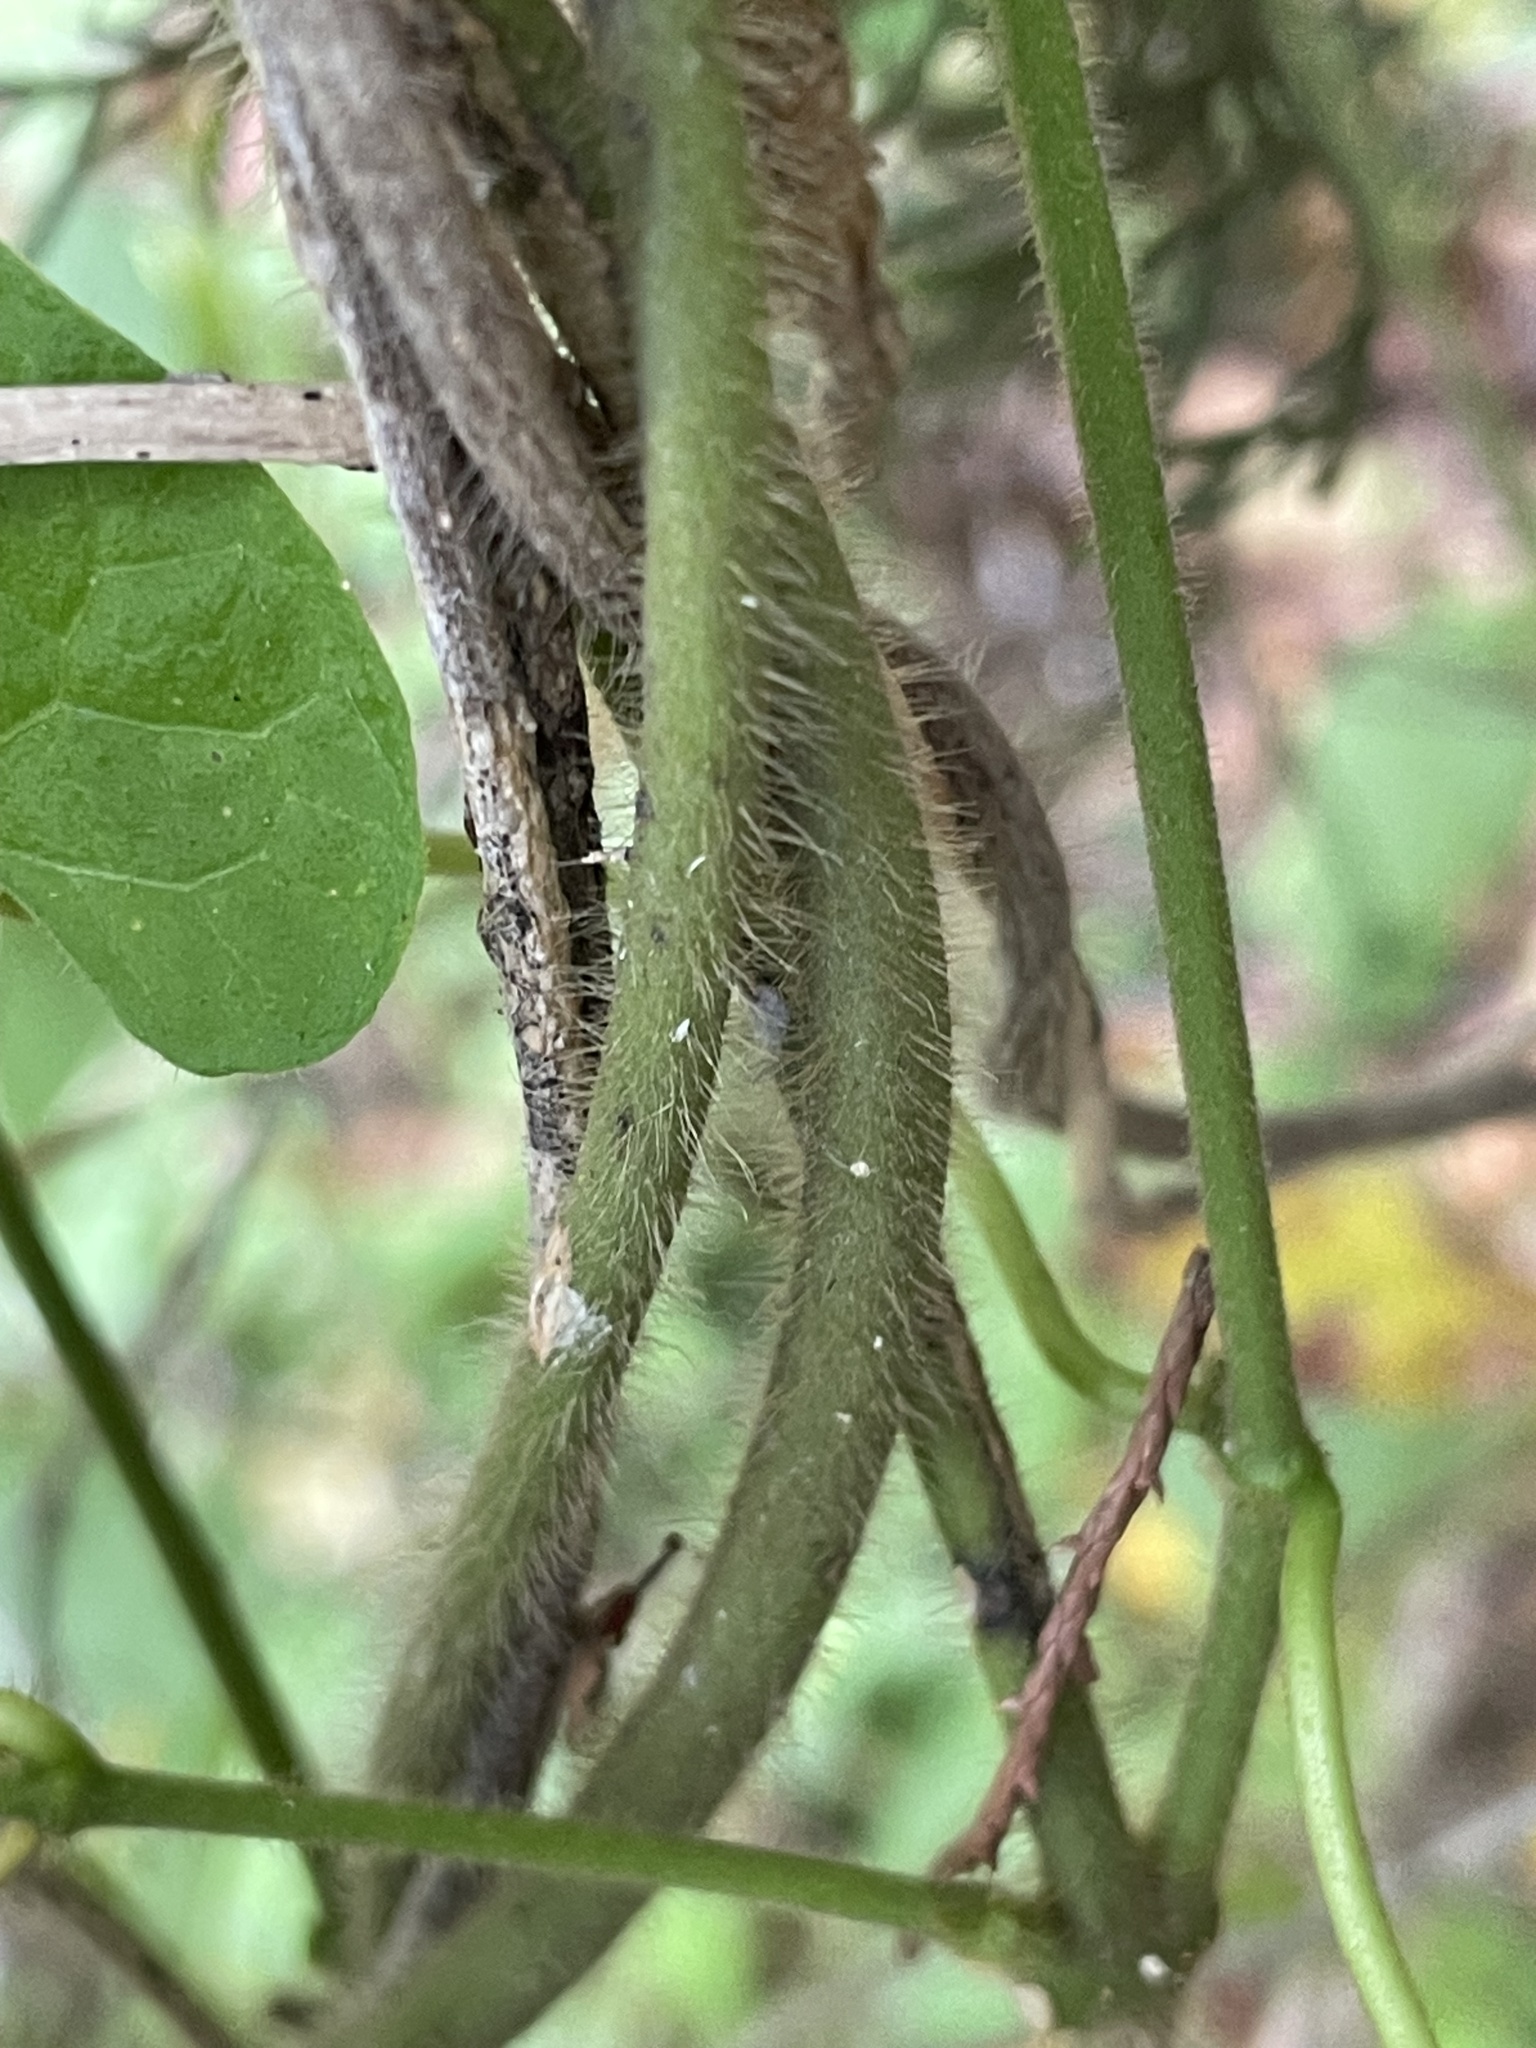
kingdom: Plantae
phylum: Tracheophyta
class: Magnoliopsida
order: Gentianales
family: Apocynaceae
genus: Dictyanthus
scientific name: Dictyanthus reticulatus
